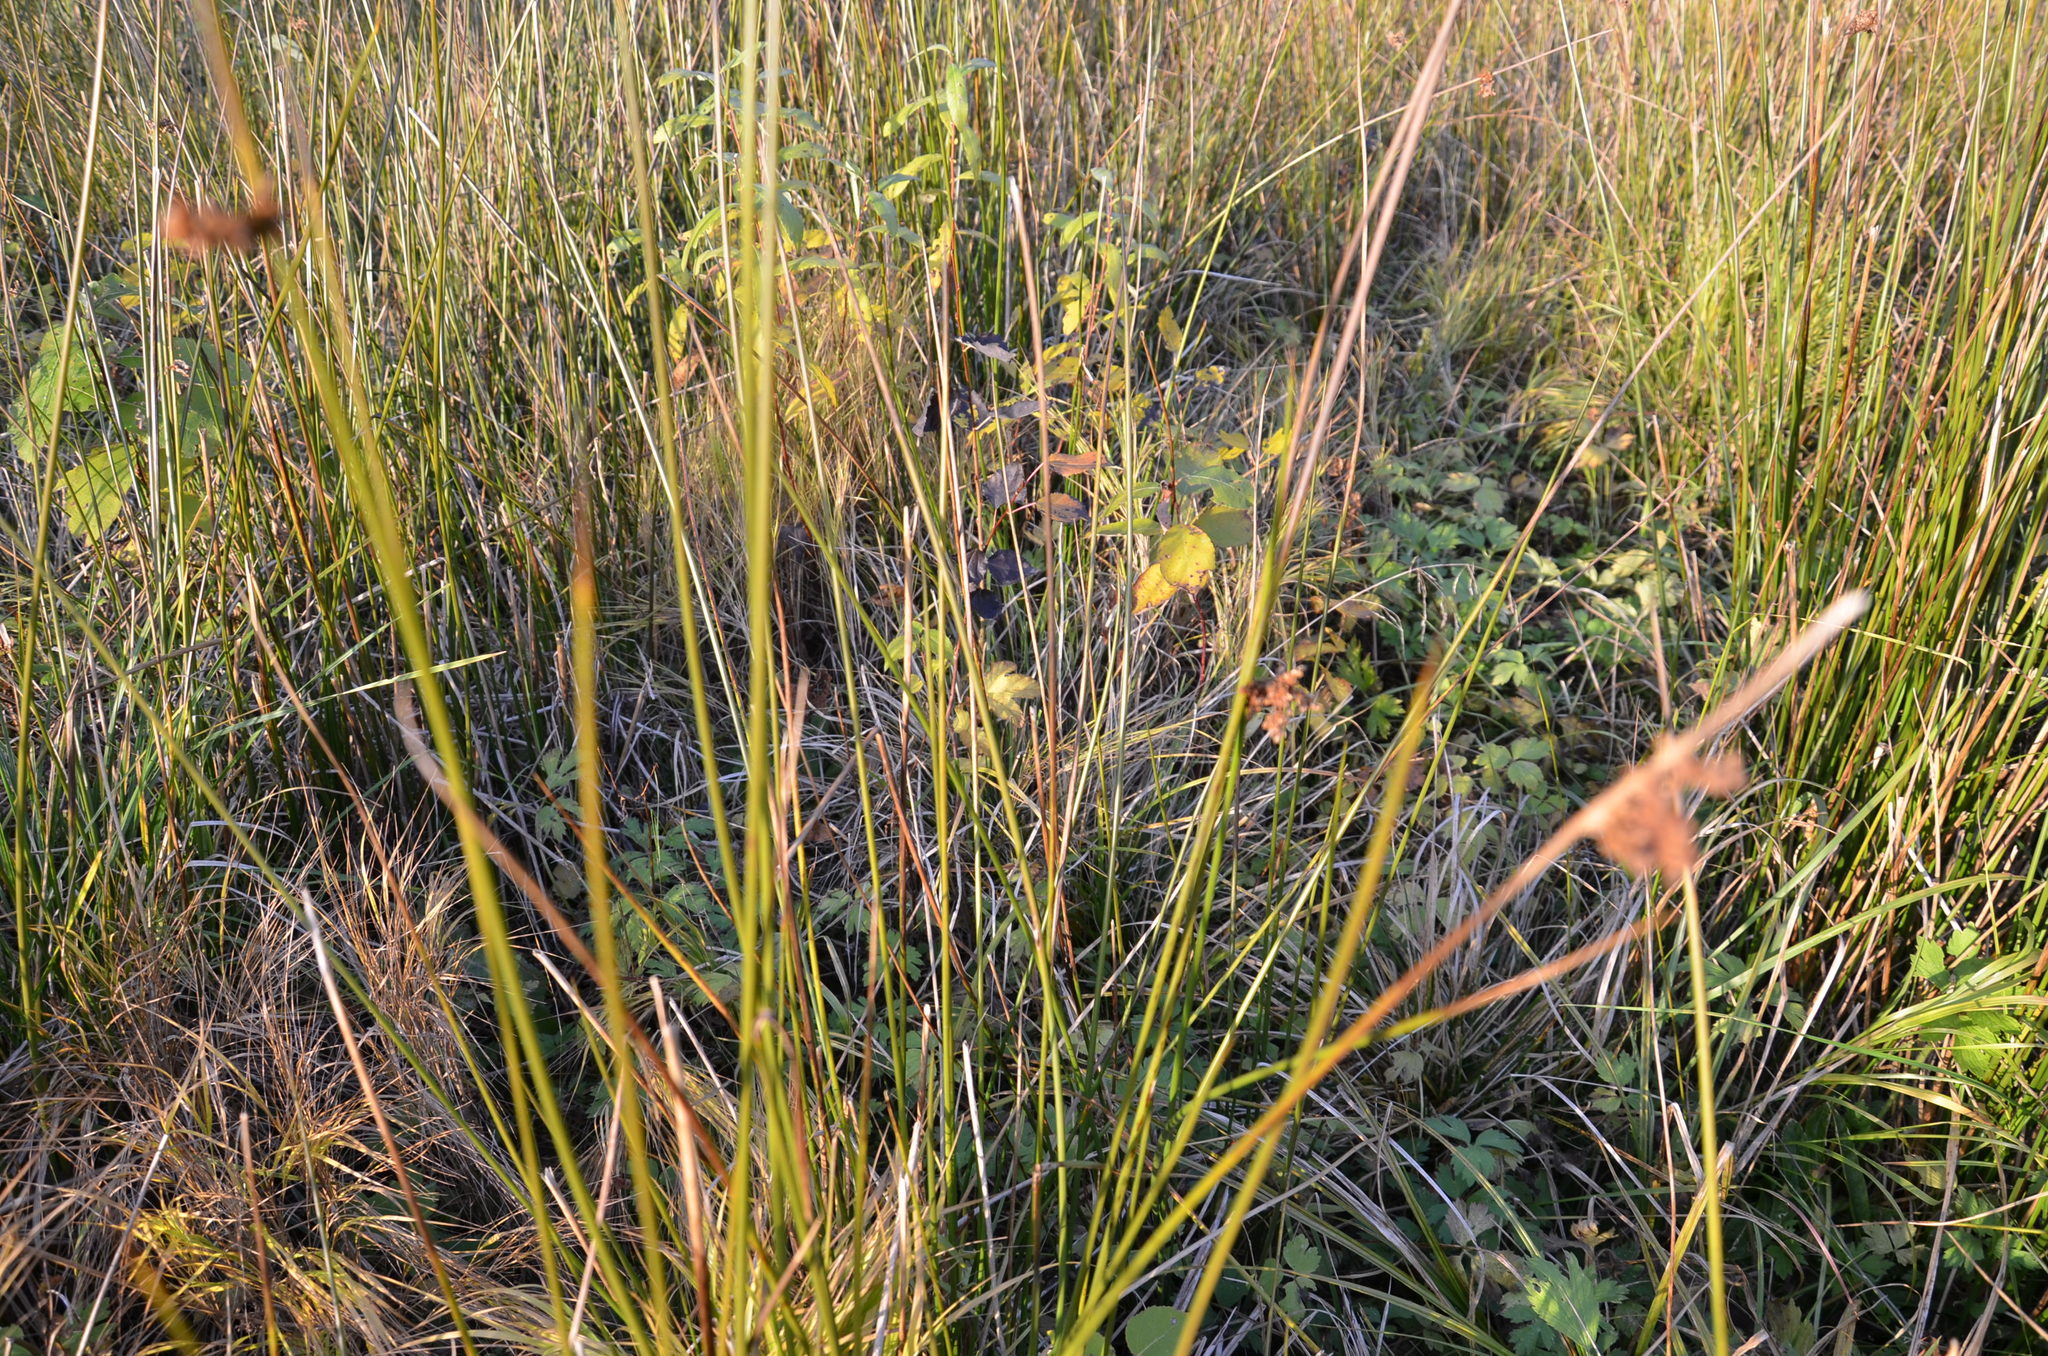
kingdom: Plantae
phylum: Tracheophyta
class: Liliopsida
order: Poales
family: Juncaceae
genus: Juncus
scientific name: Juncus effusus
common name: Soft rush
